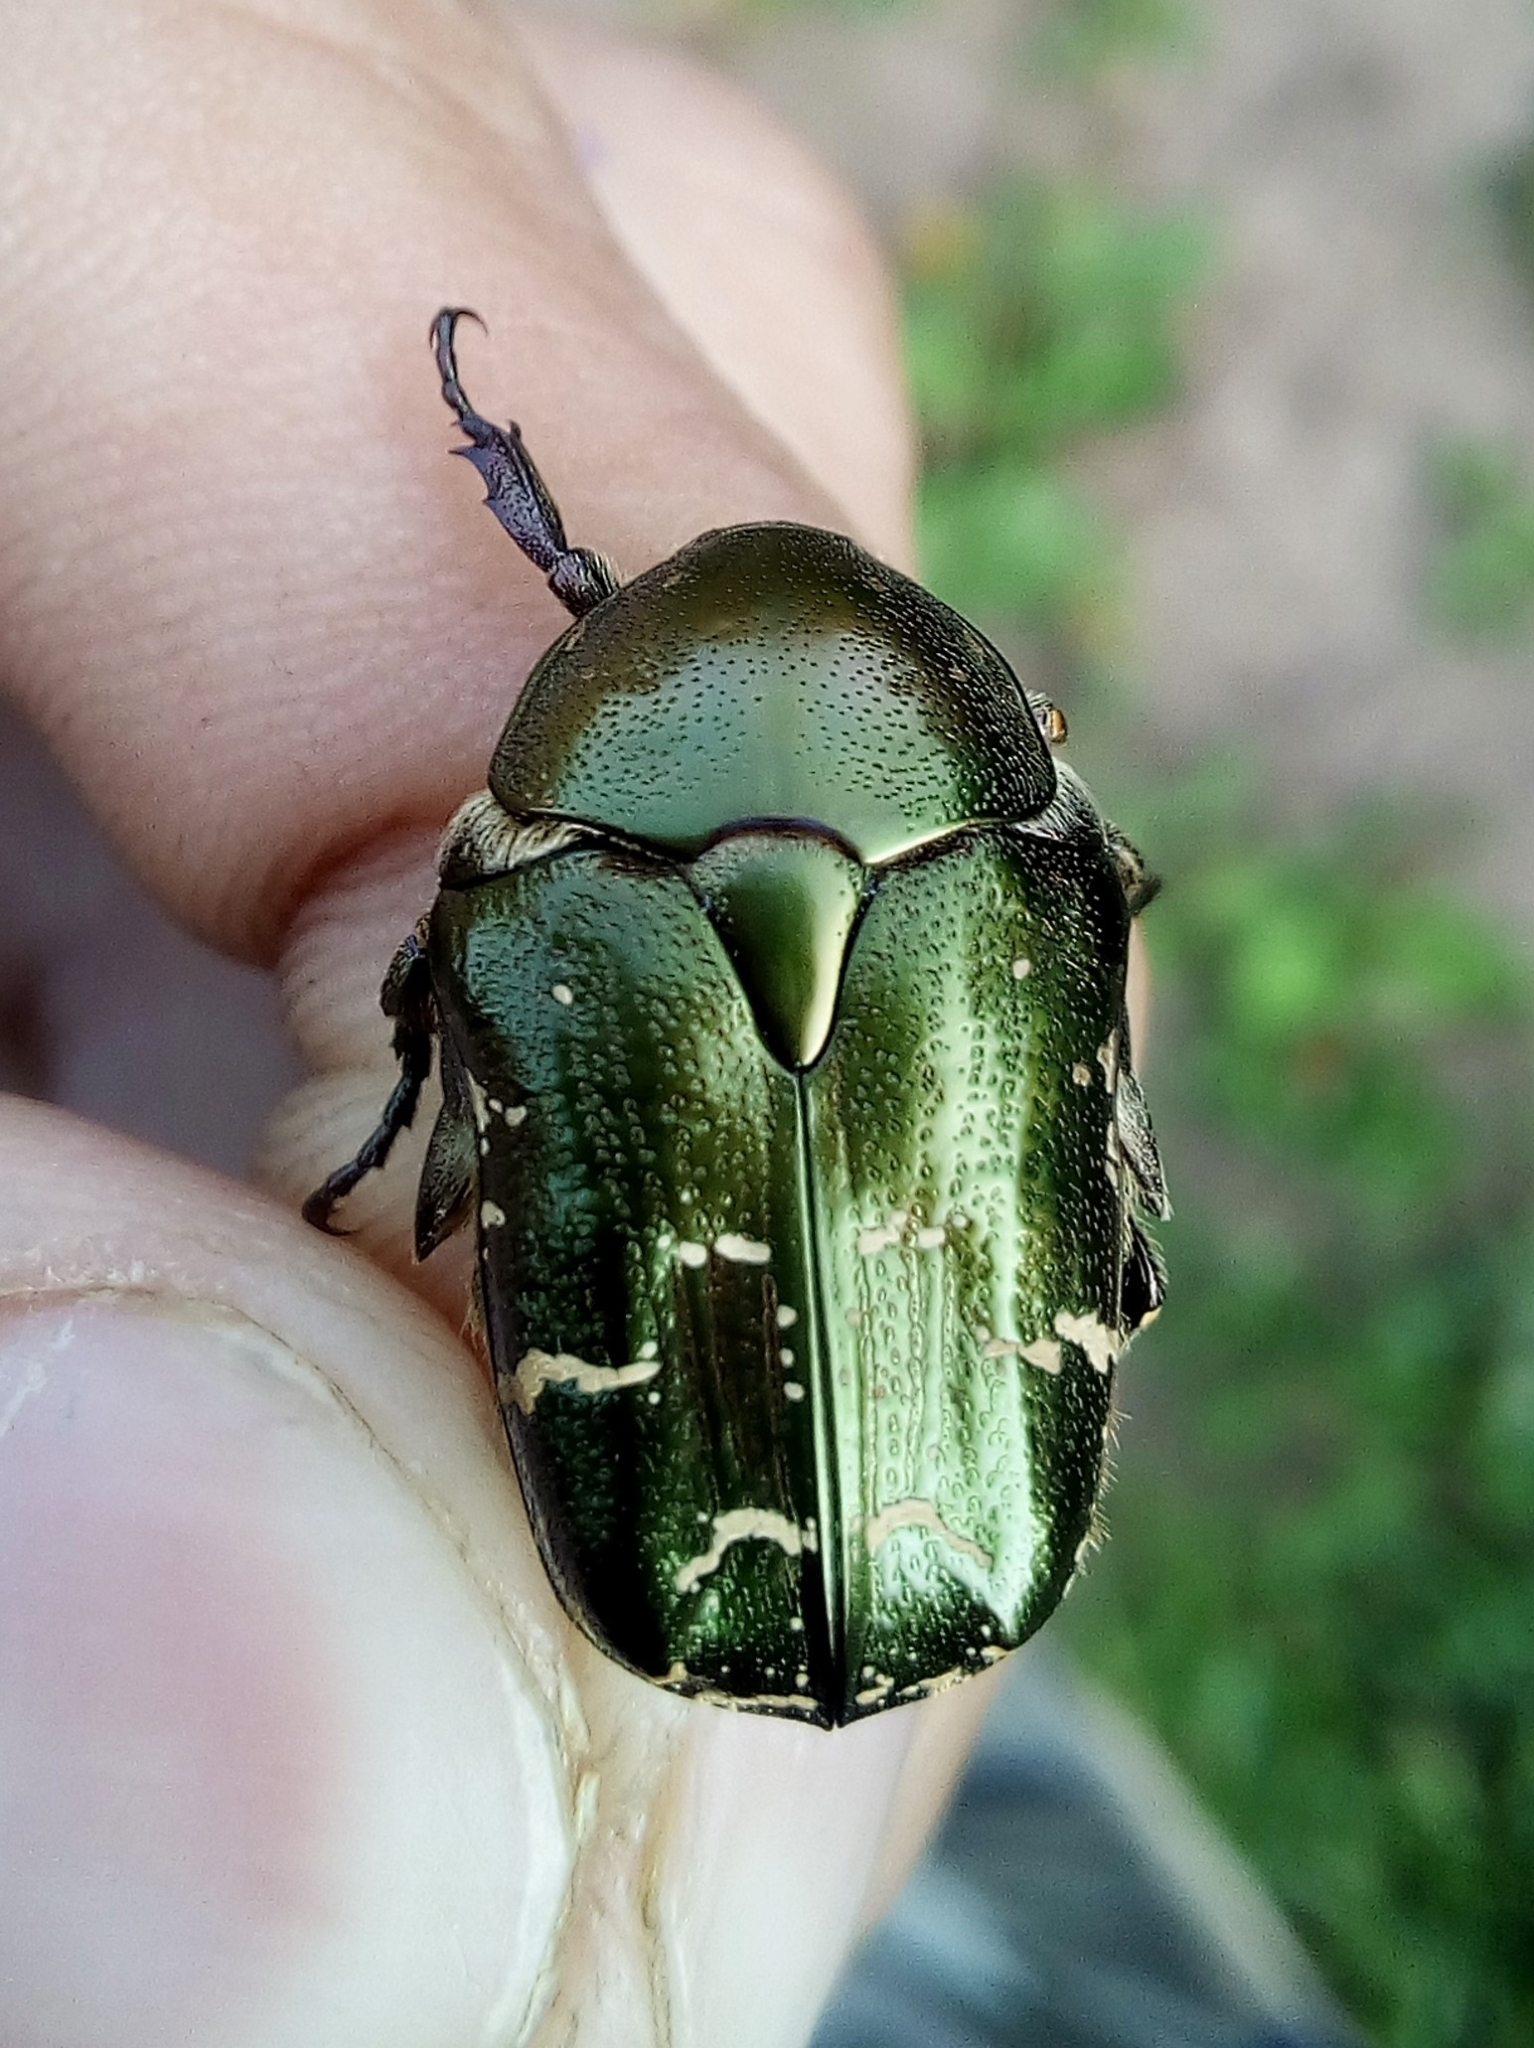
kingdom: Animalia
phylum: Arthropoda
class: Insecta
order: Coleoptera
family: Scarabaeidae
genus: Protaetia
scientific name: Protaetia cuprea
